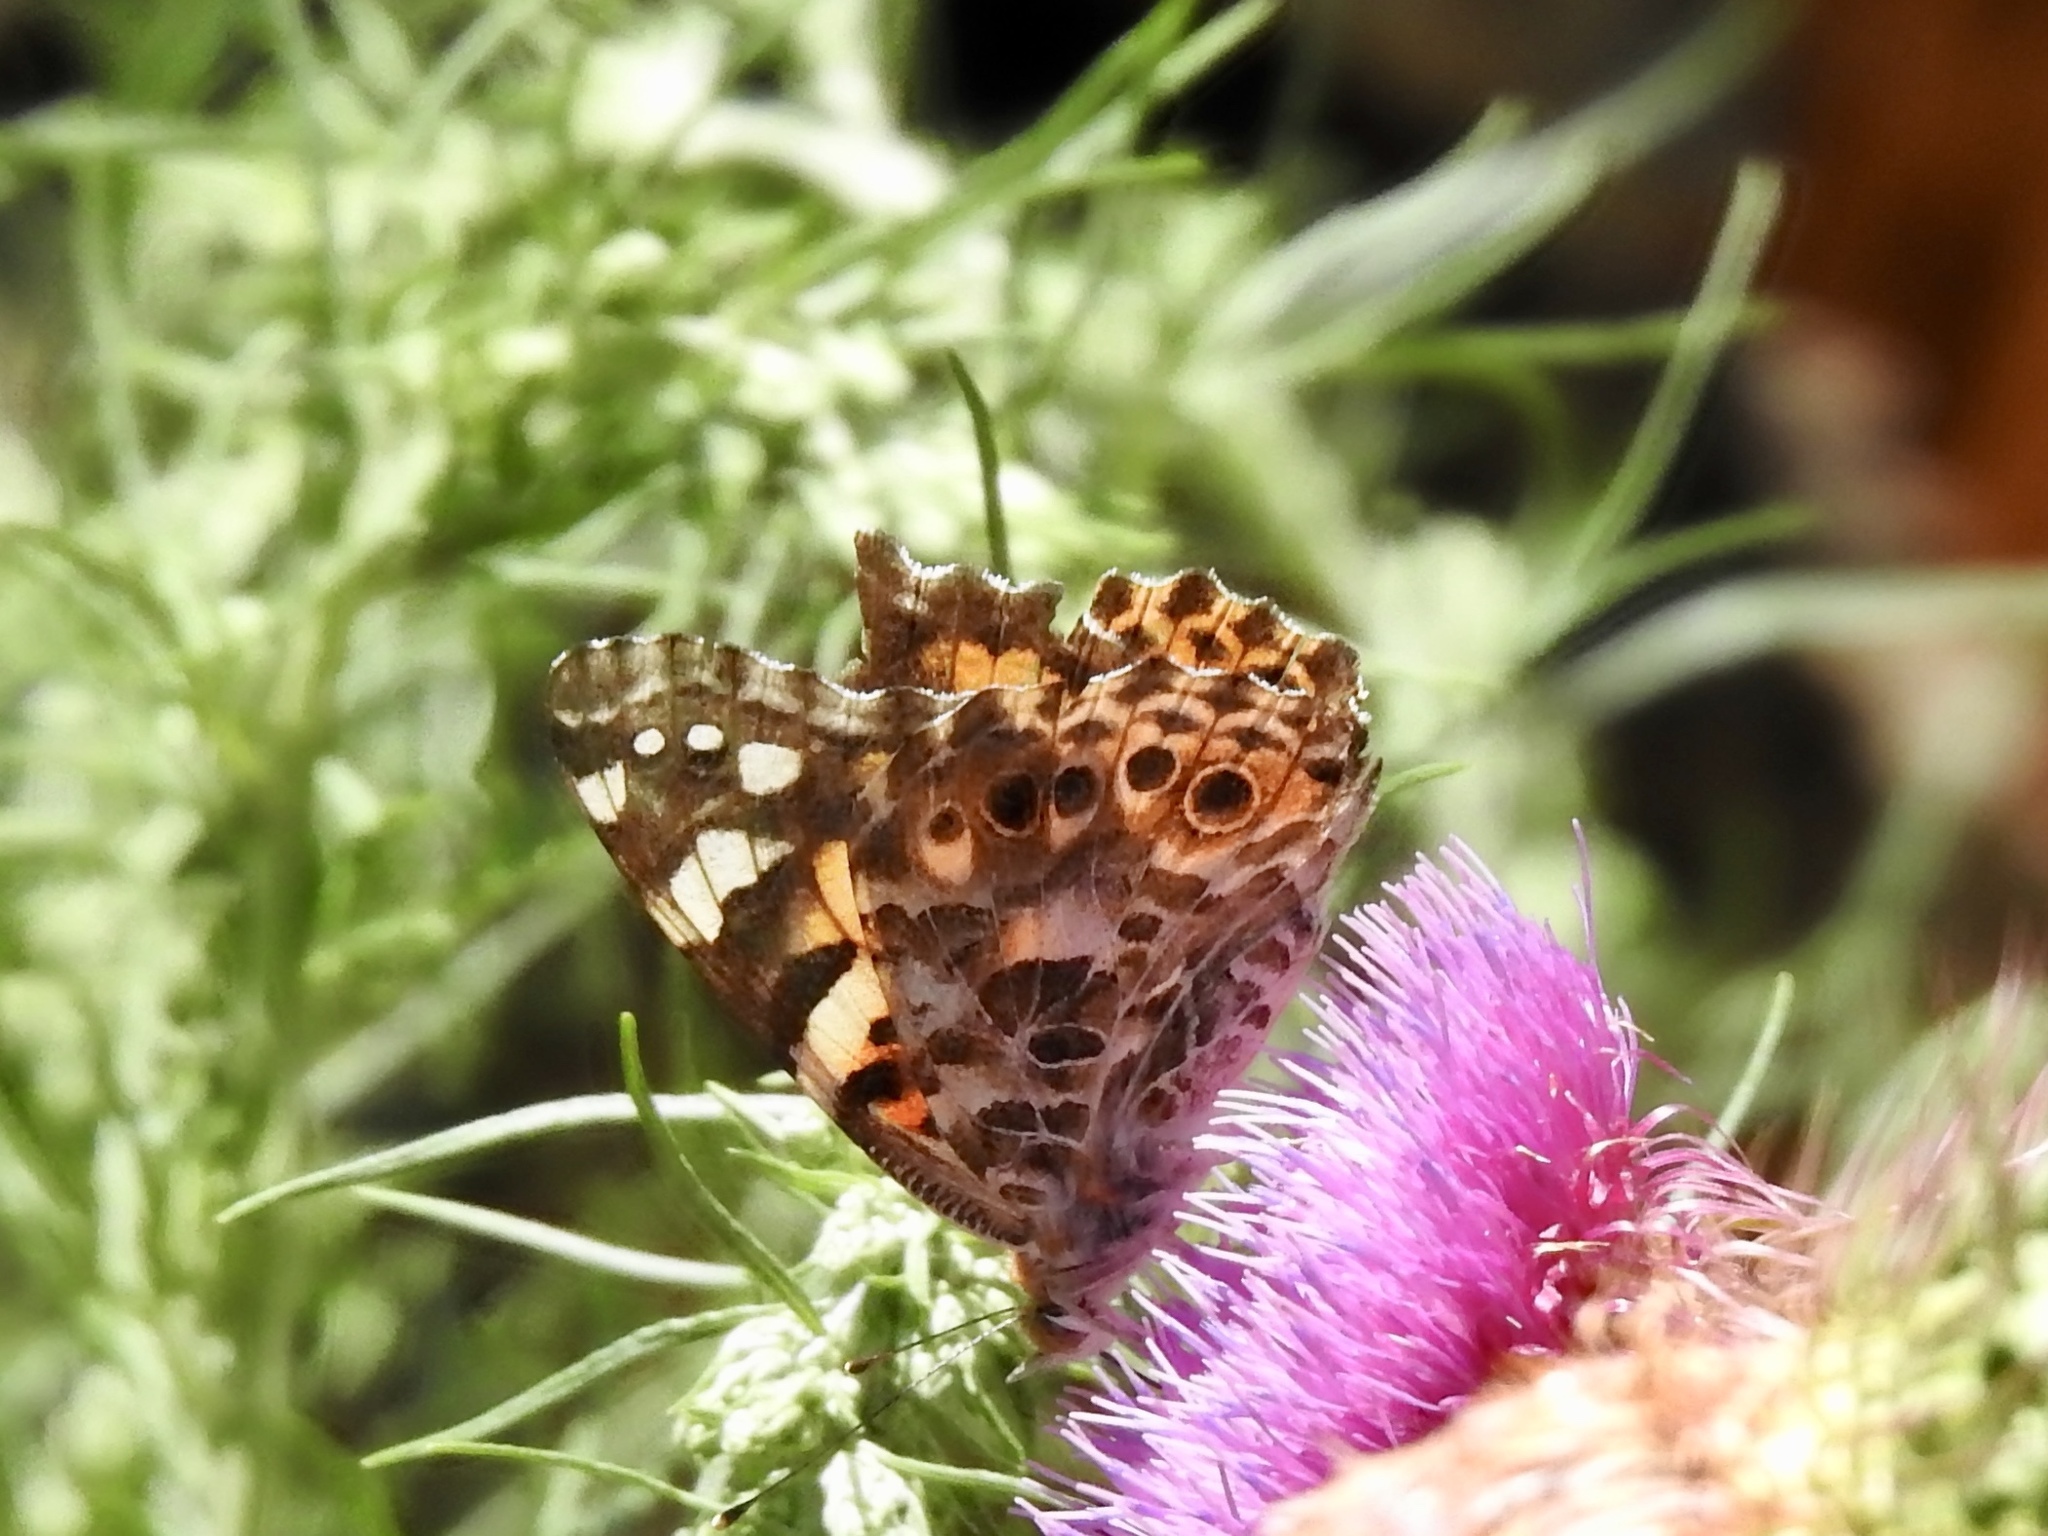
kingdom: Animalia
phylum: Arthropoda
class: Insecta
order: Lepidoptera
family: Nymphalidae
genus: Vanessa
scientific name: Vanessa cardui
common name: Painted lady
